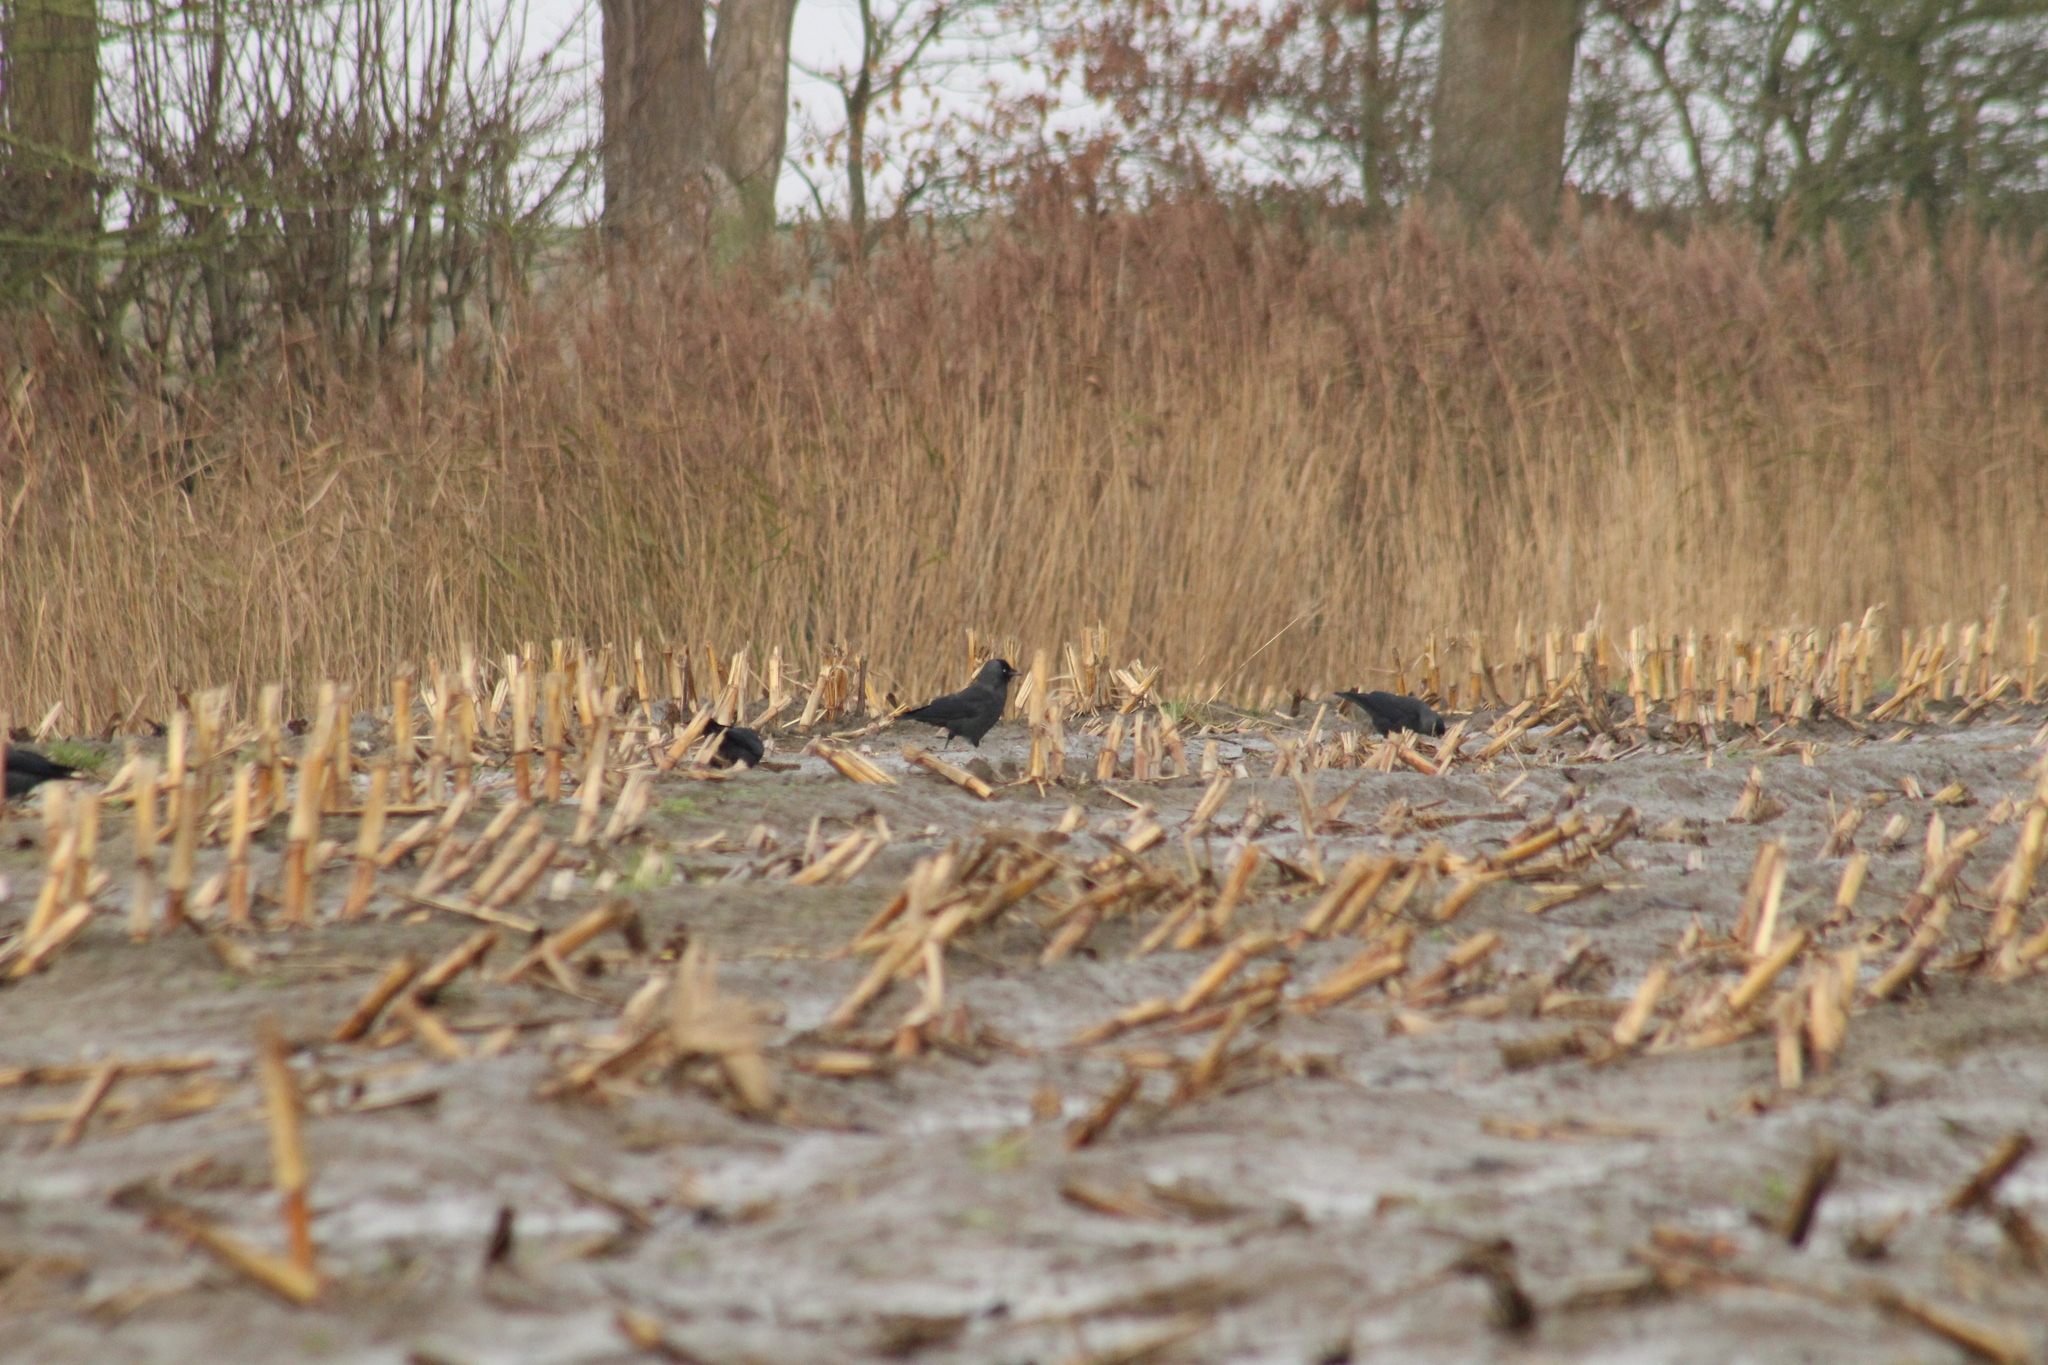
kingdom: Animalia
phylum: Chordata
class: Aves
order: Passeriformes
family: Corvidae
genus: Coloeus
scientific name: Coloeus monedula
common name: Western jackdaw
